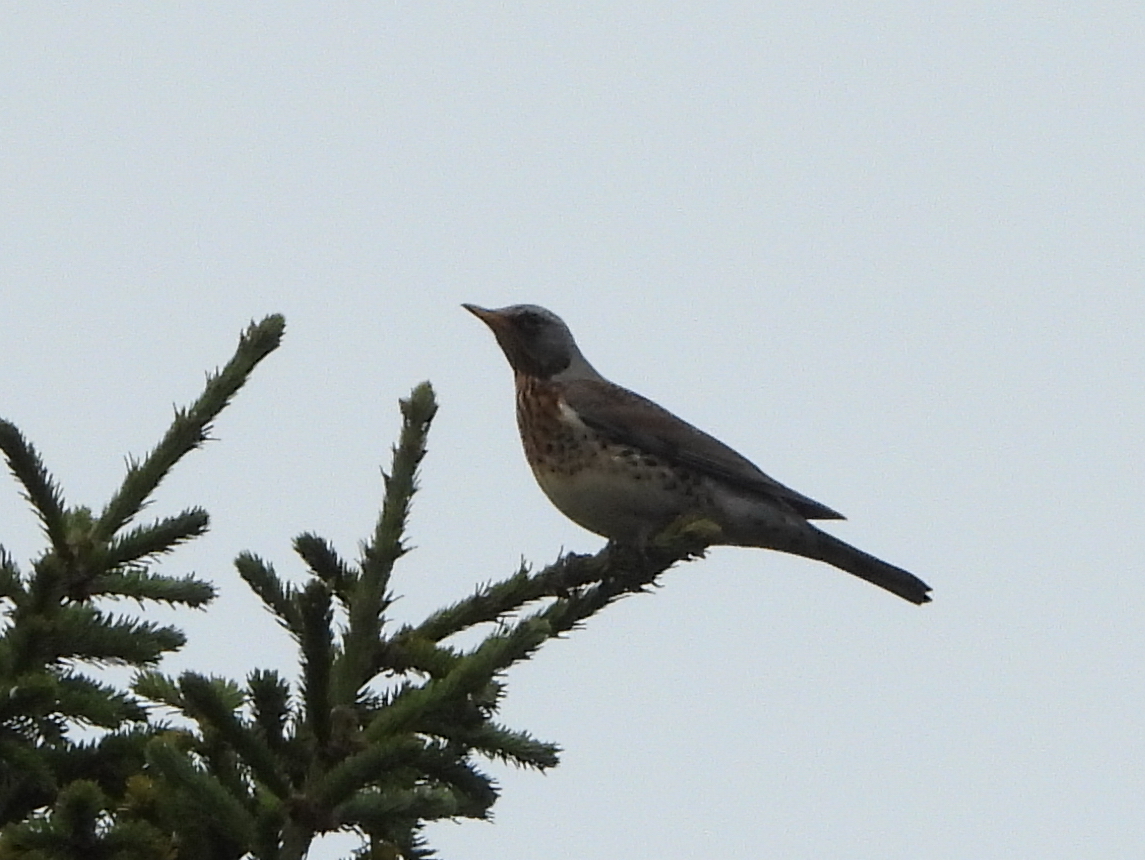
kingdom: Animalia
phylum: Chordata
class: Aves
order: Passeriformes
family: Turdidae
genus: Turdus
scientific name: Turdus pilaris
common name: Fieldfare
